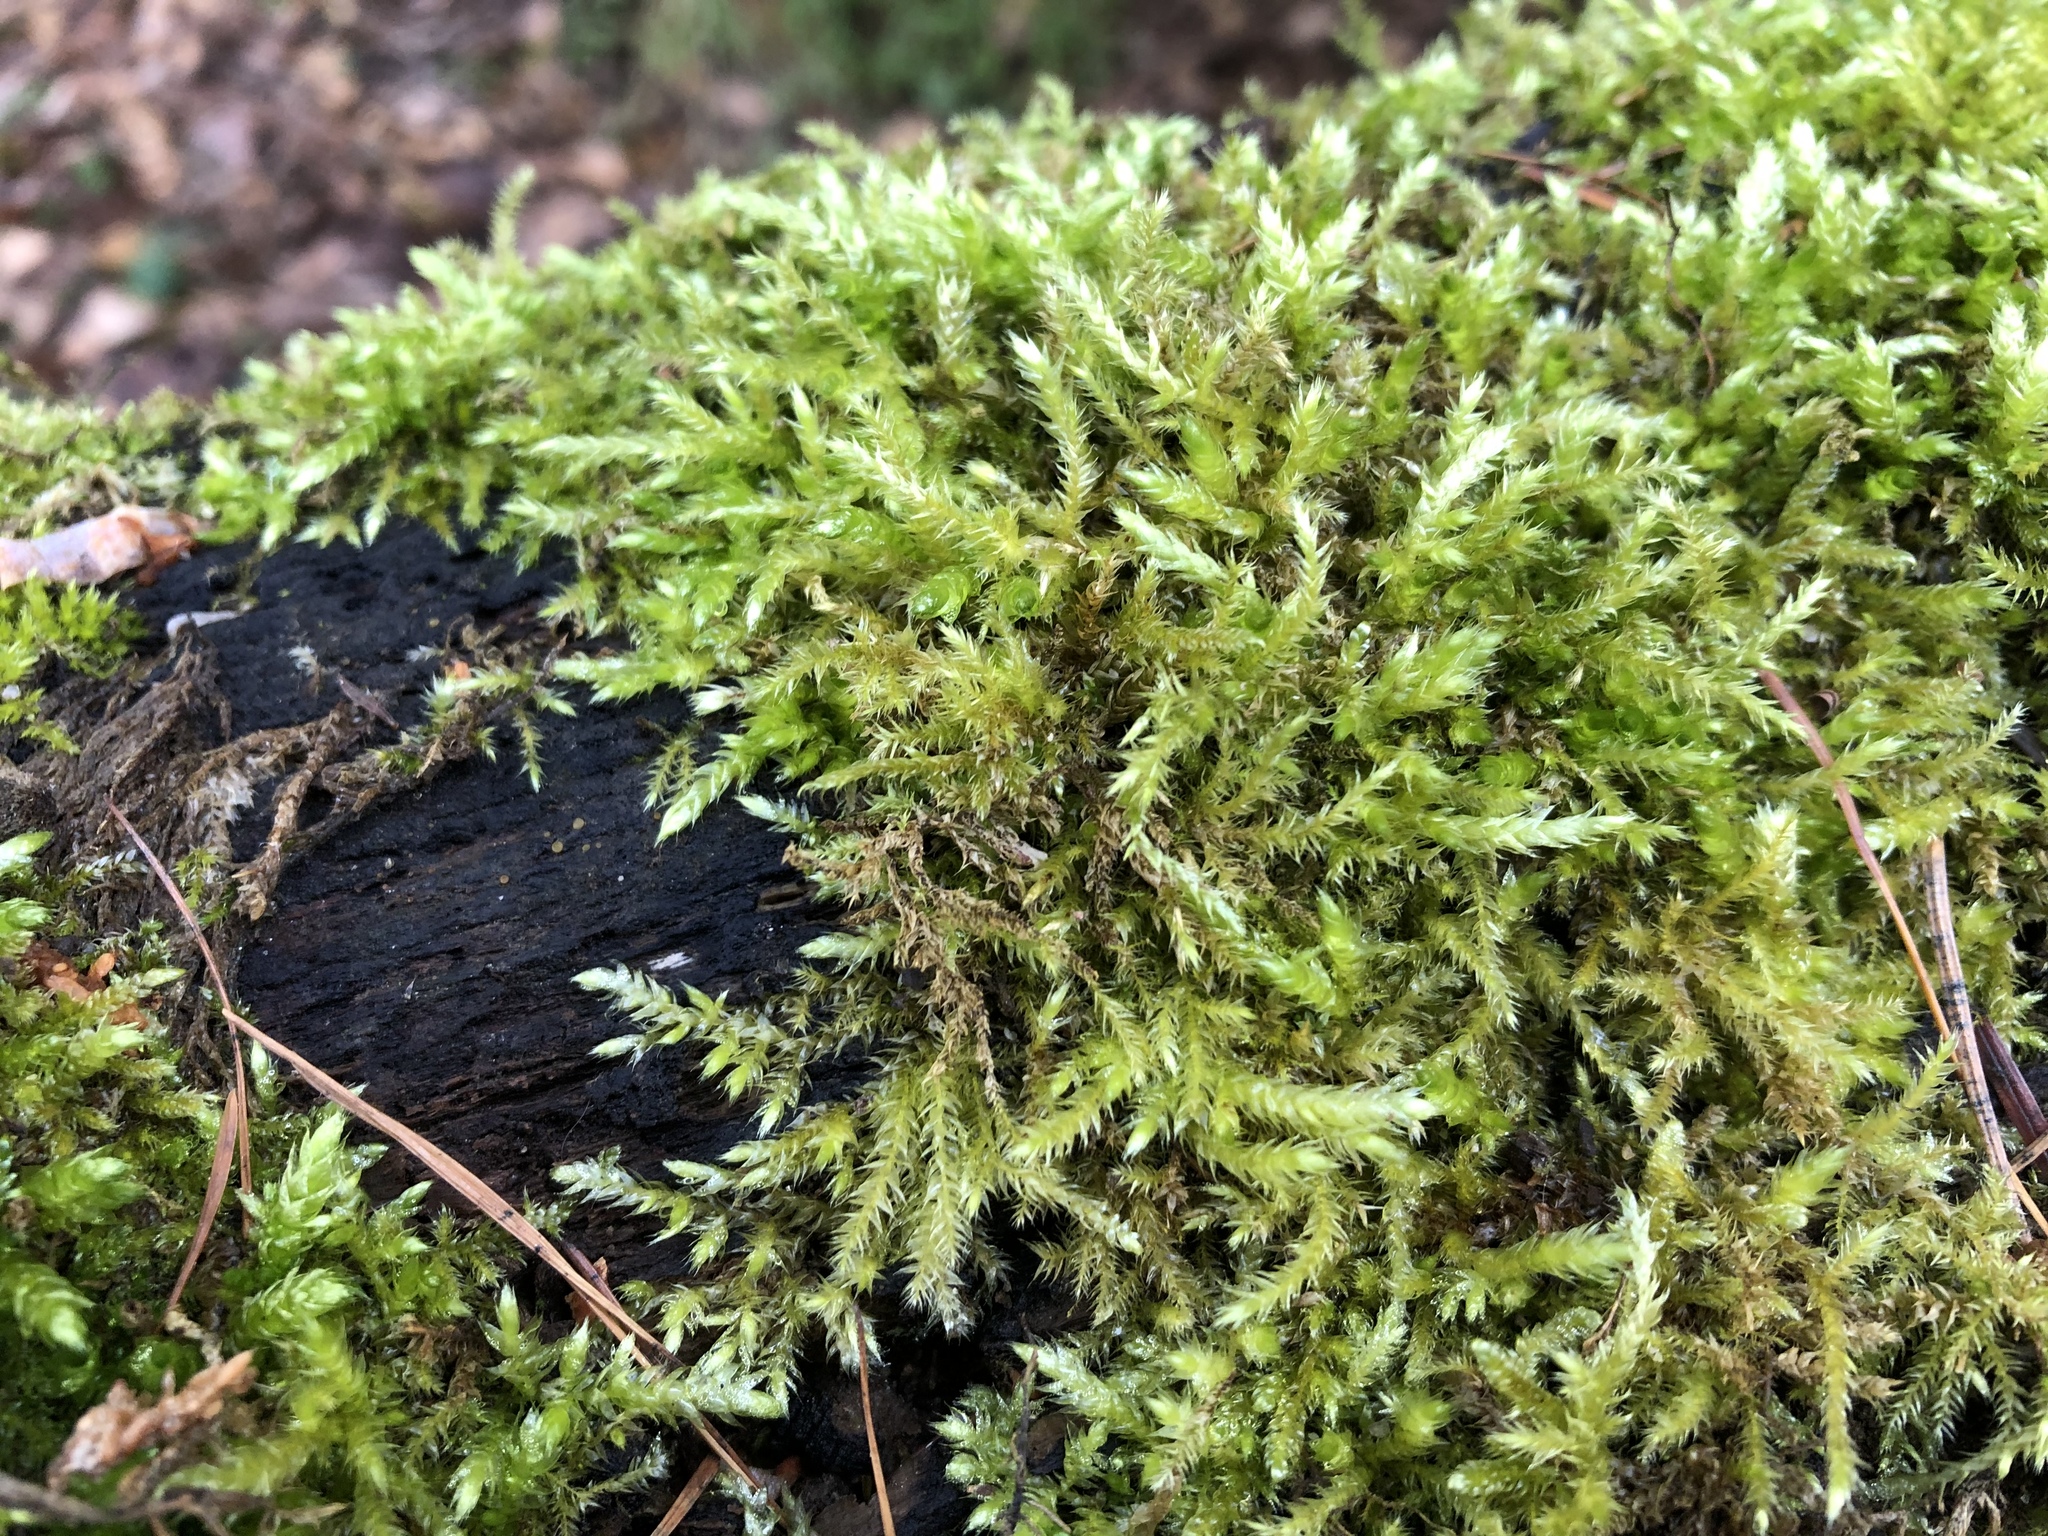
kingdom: Plantae
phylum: Bryophyta
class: Bryopsida
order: Hypnales
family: Brachytheciaceae
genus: Brachythecium
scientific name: Brachythecium rutabulum
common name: Rough-stalked feather-moss
